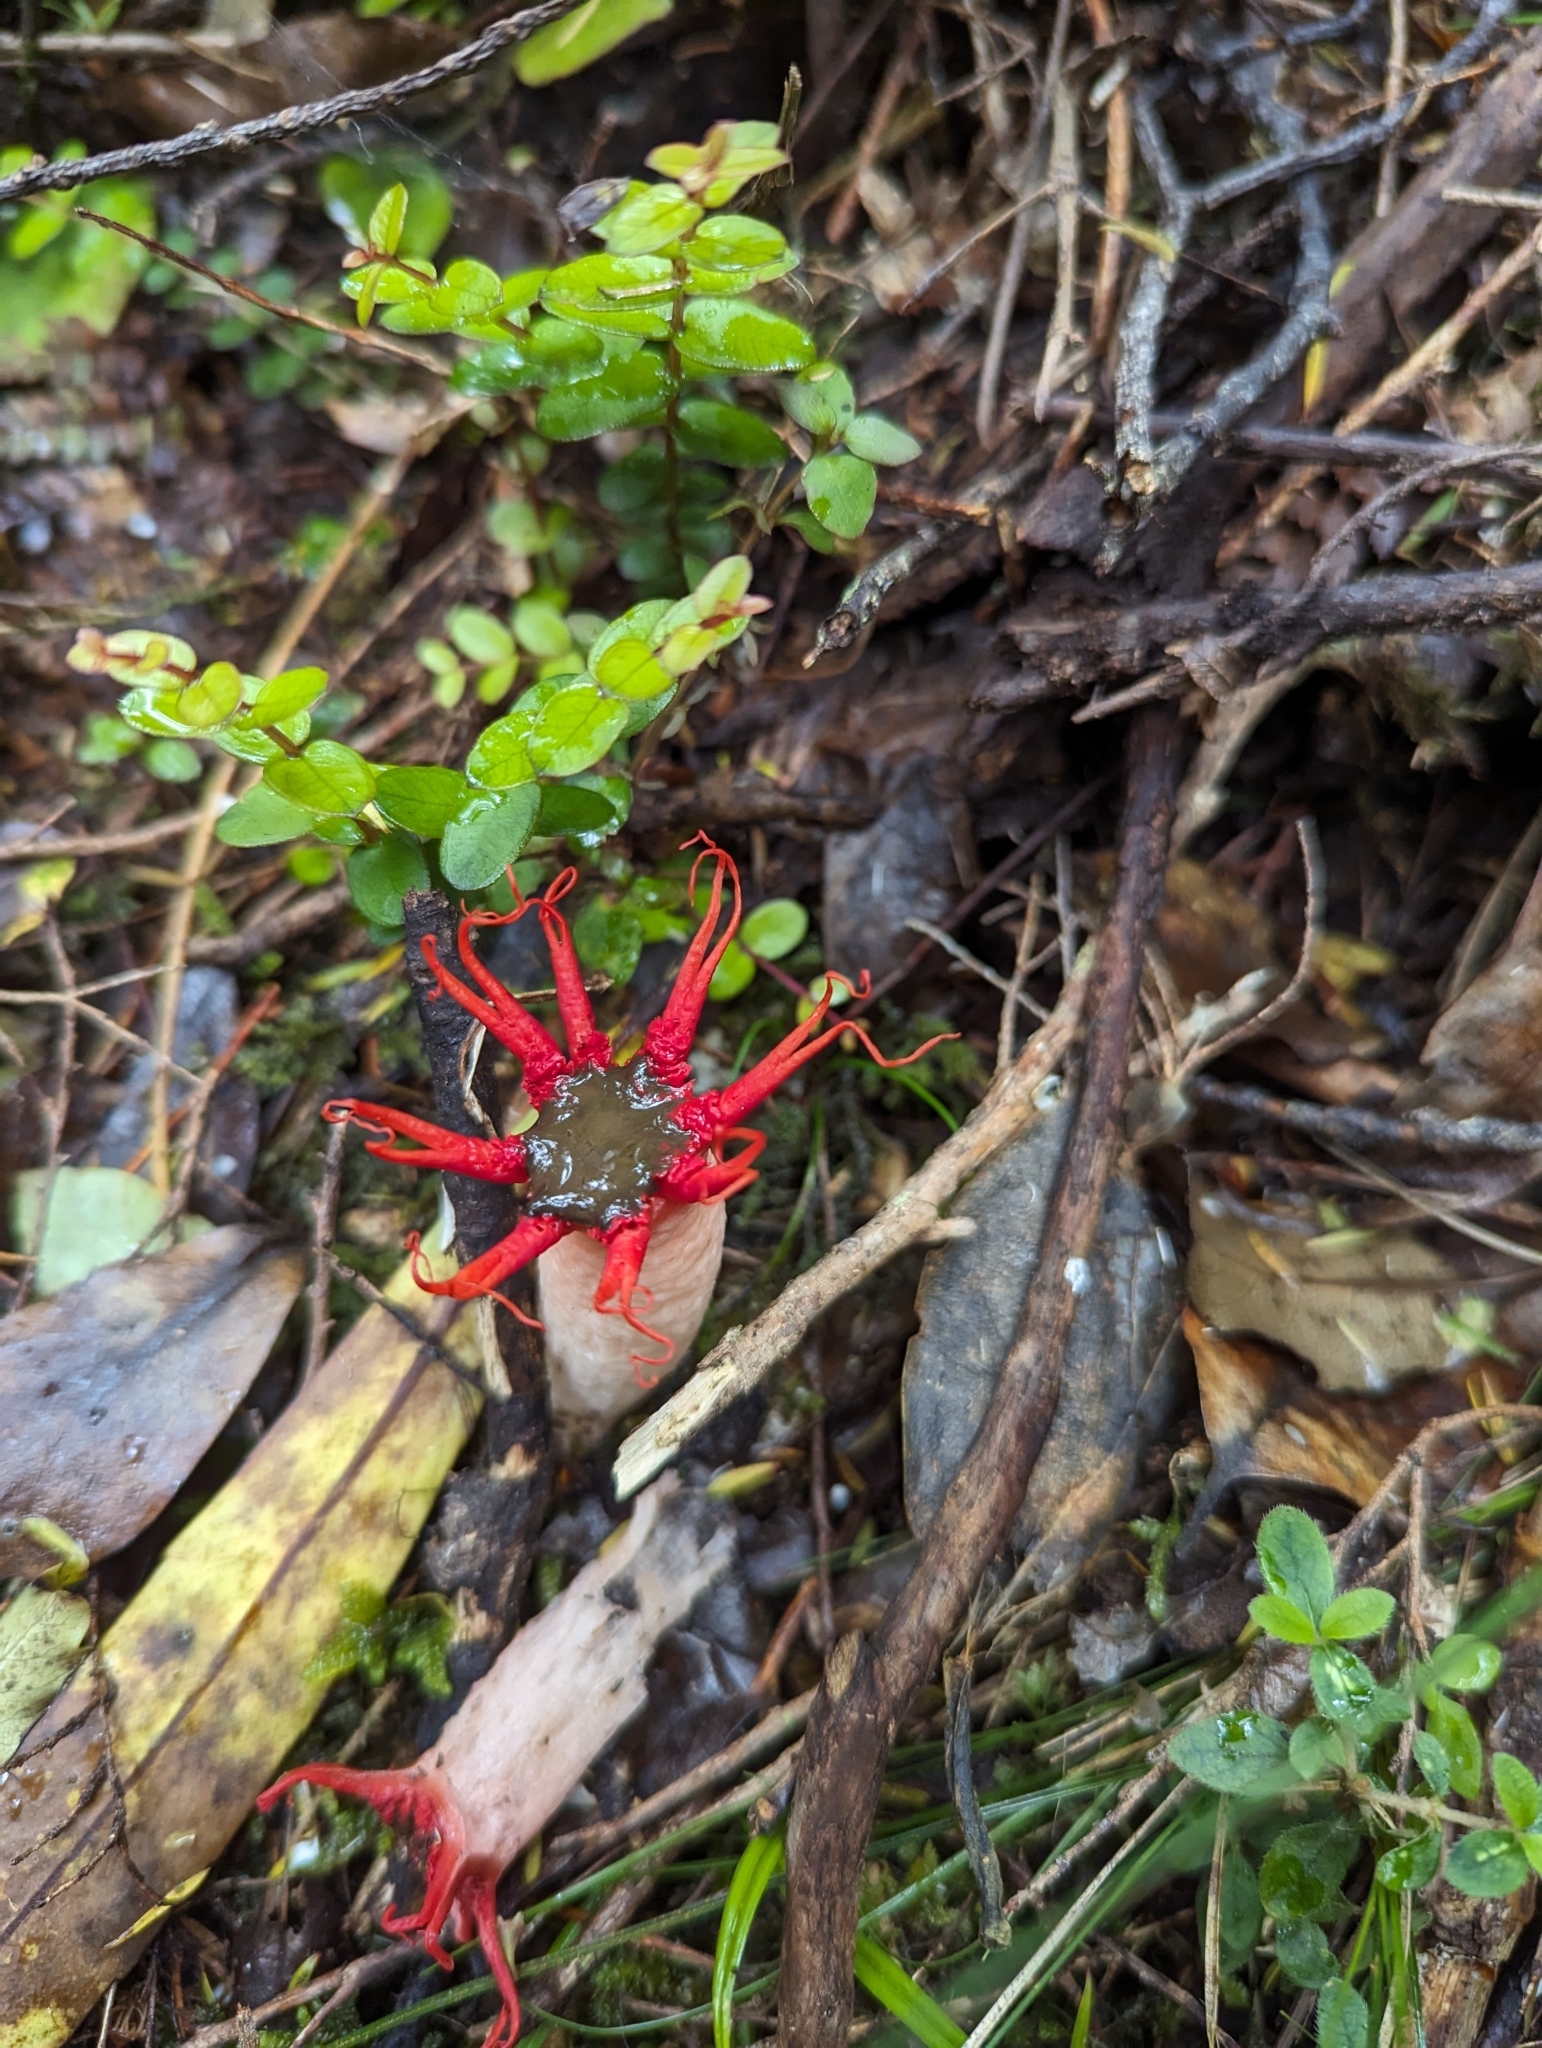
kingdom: Fungi
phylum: Basidiomycota
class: Agaricomycetes
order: Phallales
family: Phallaceae
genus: Aseroe
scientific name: Aseroe rubra
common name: Starfish fungus
